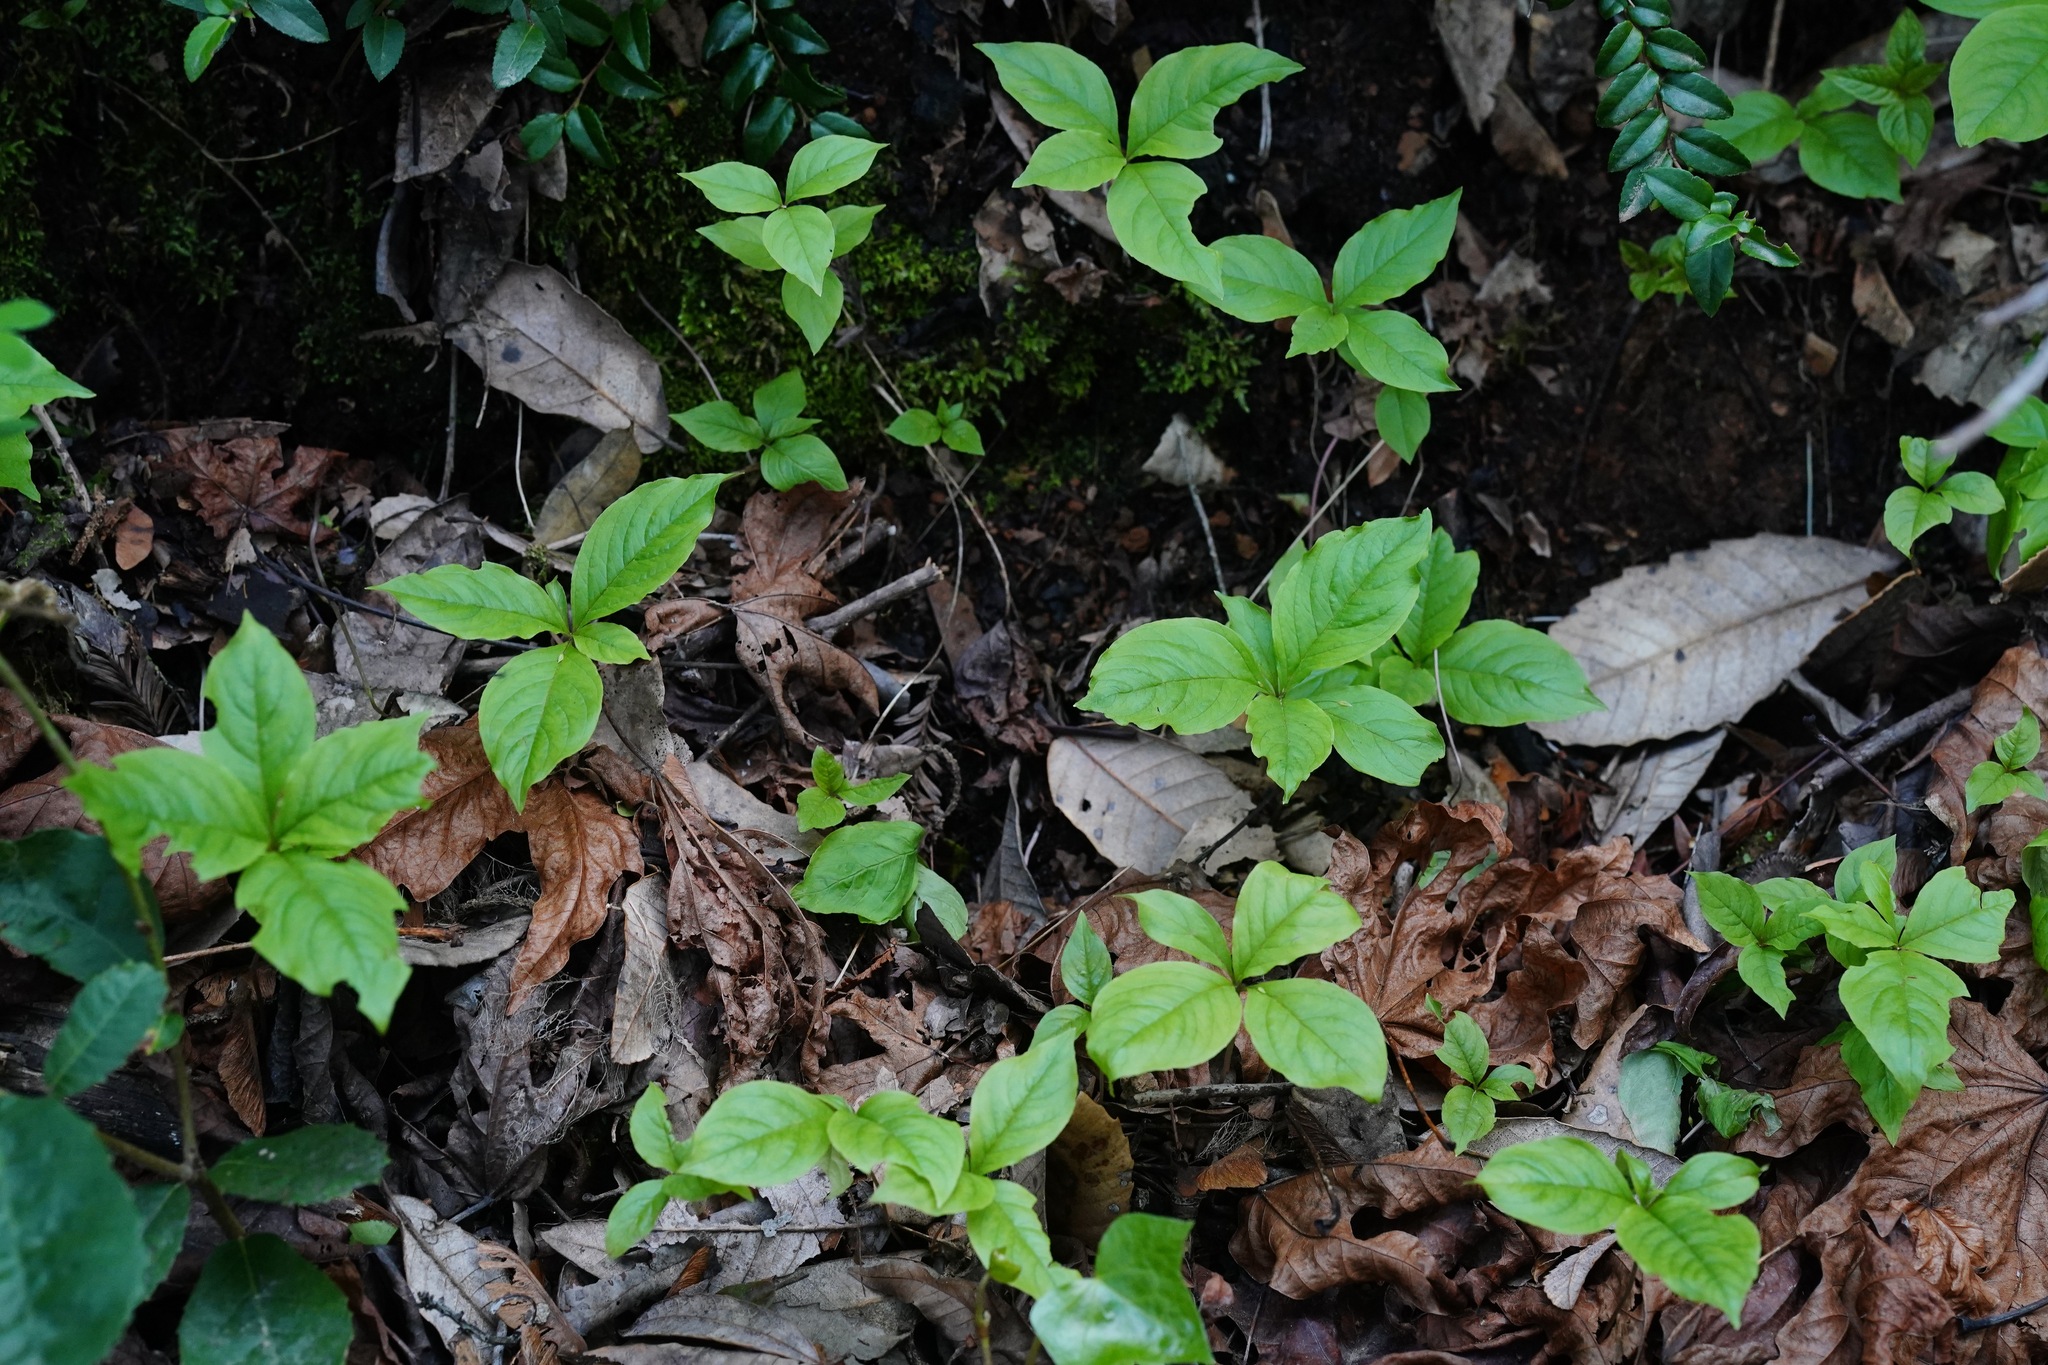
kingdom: Plantae
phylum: Tracheophyta
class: Magnoliopsida
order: Ericales
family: Primulaceae
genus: Lysimachia
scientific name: Lysimachia latifolia
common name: Pacific starflower
